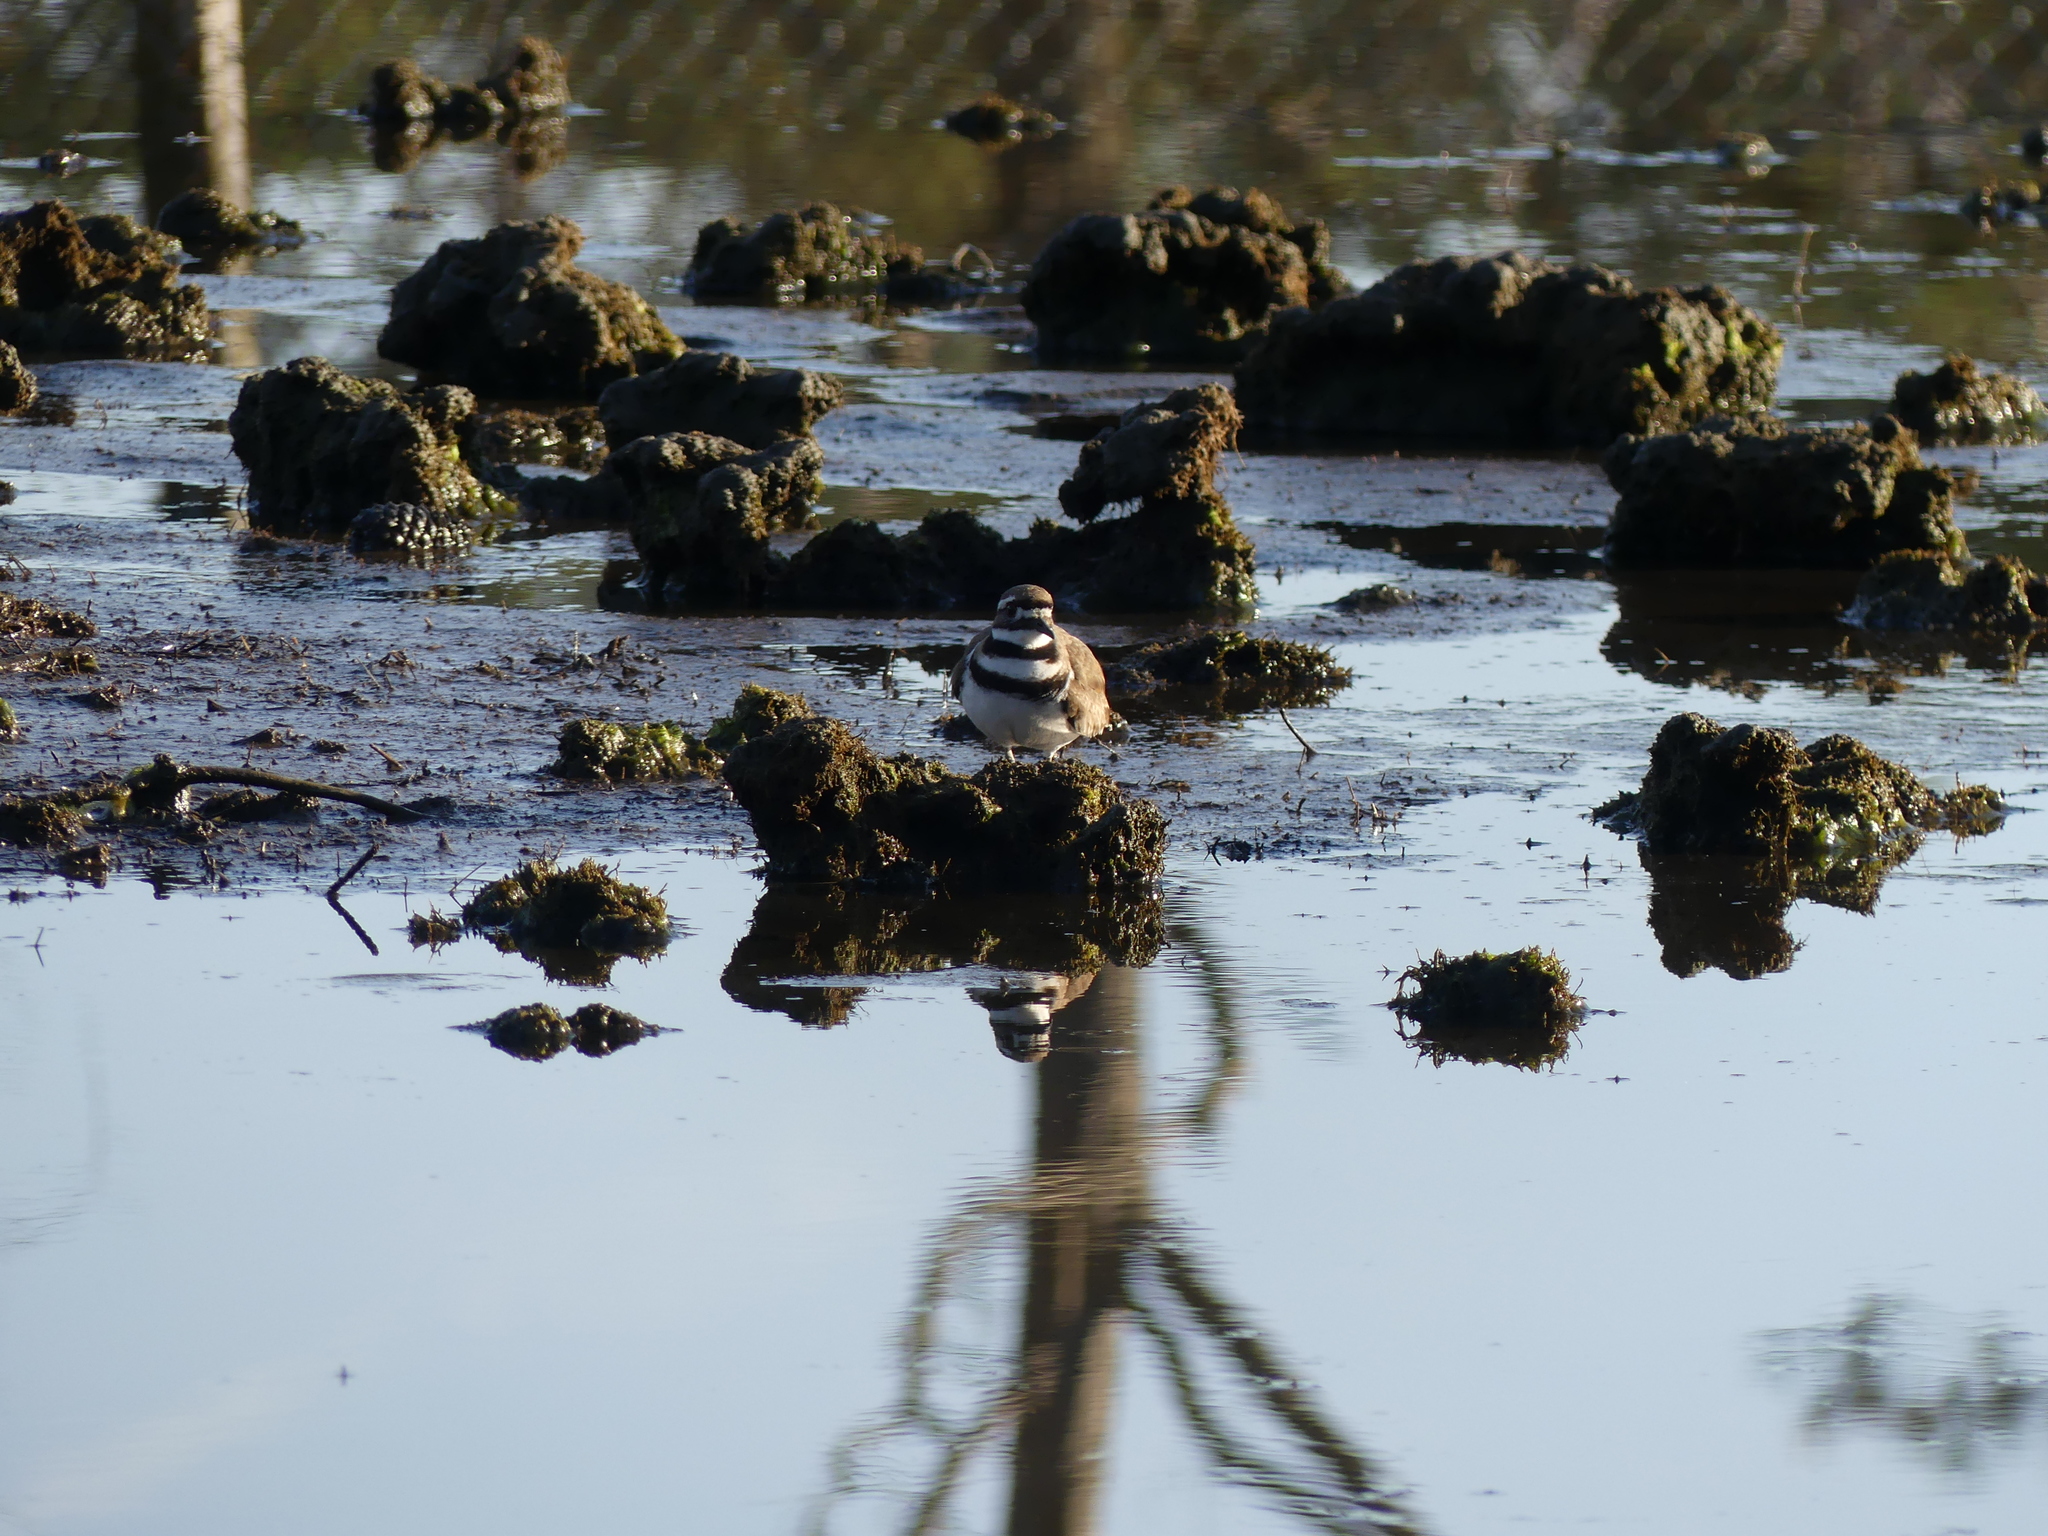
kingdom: Animalia
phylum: Chordata
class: Aves
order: Charadriiformes
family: Charadriidae
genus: Charadrius
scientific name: Charadrius vociferus
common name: Killdeer
